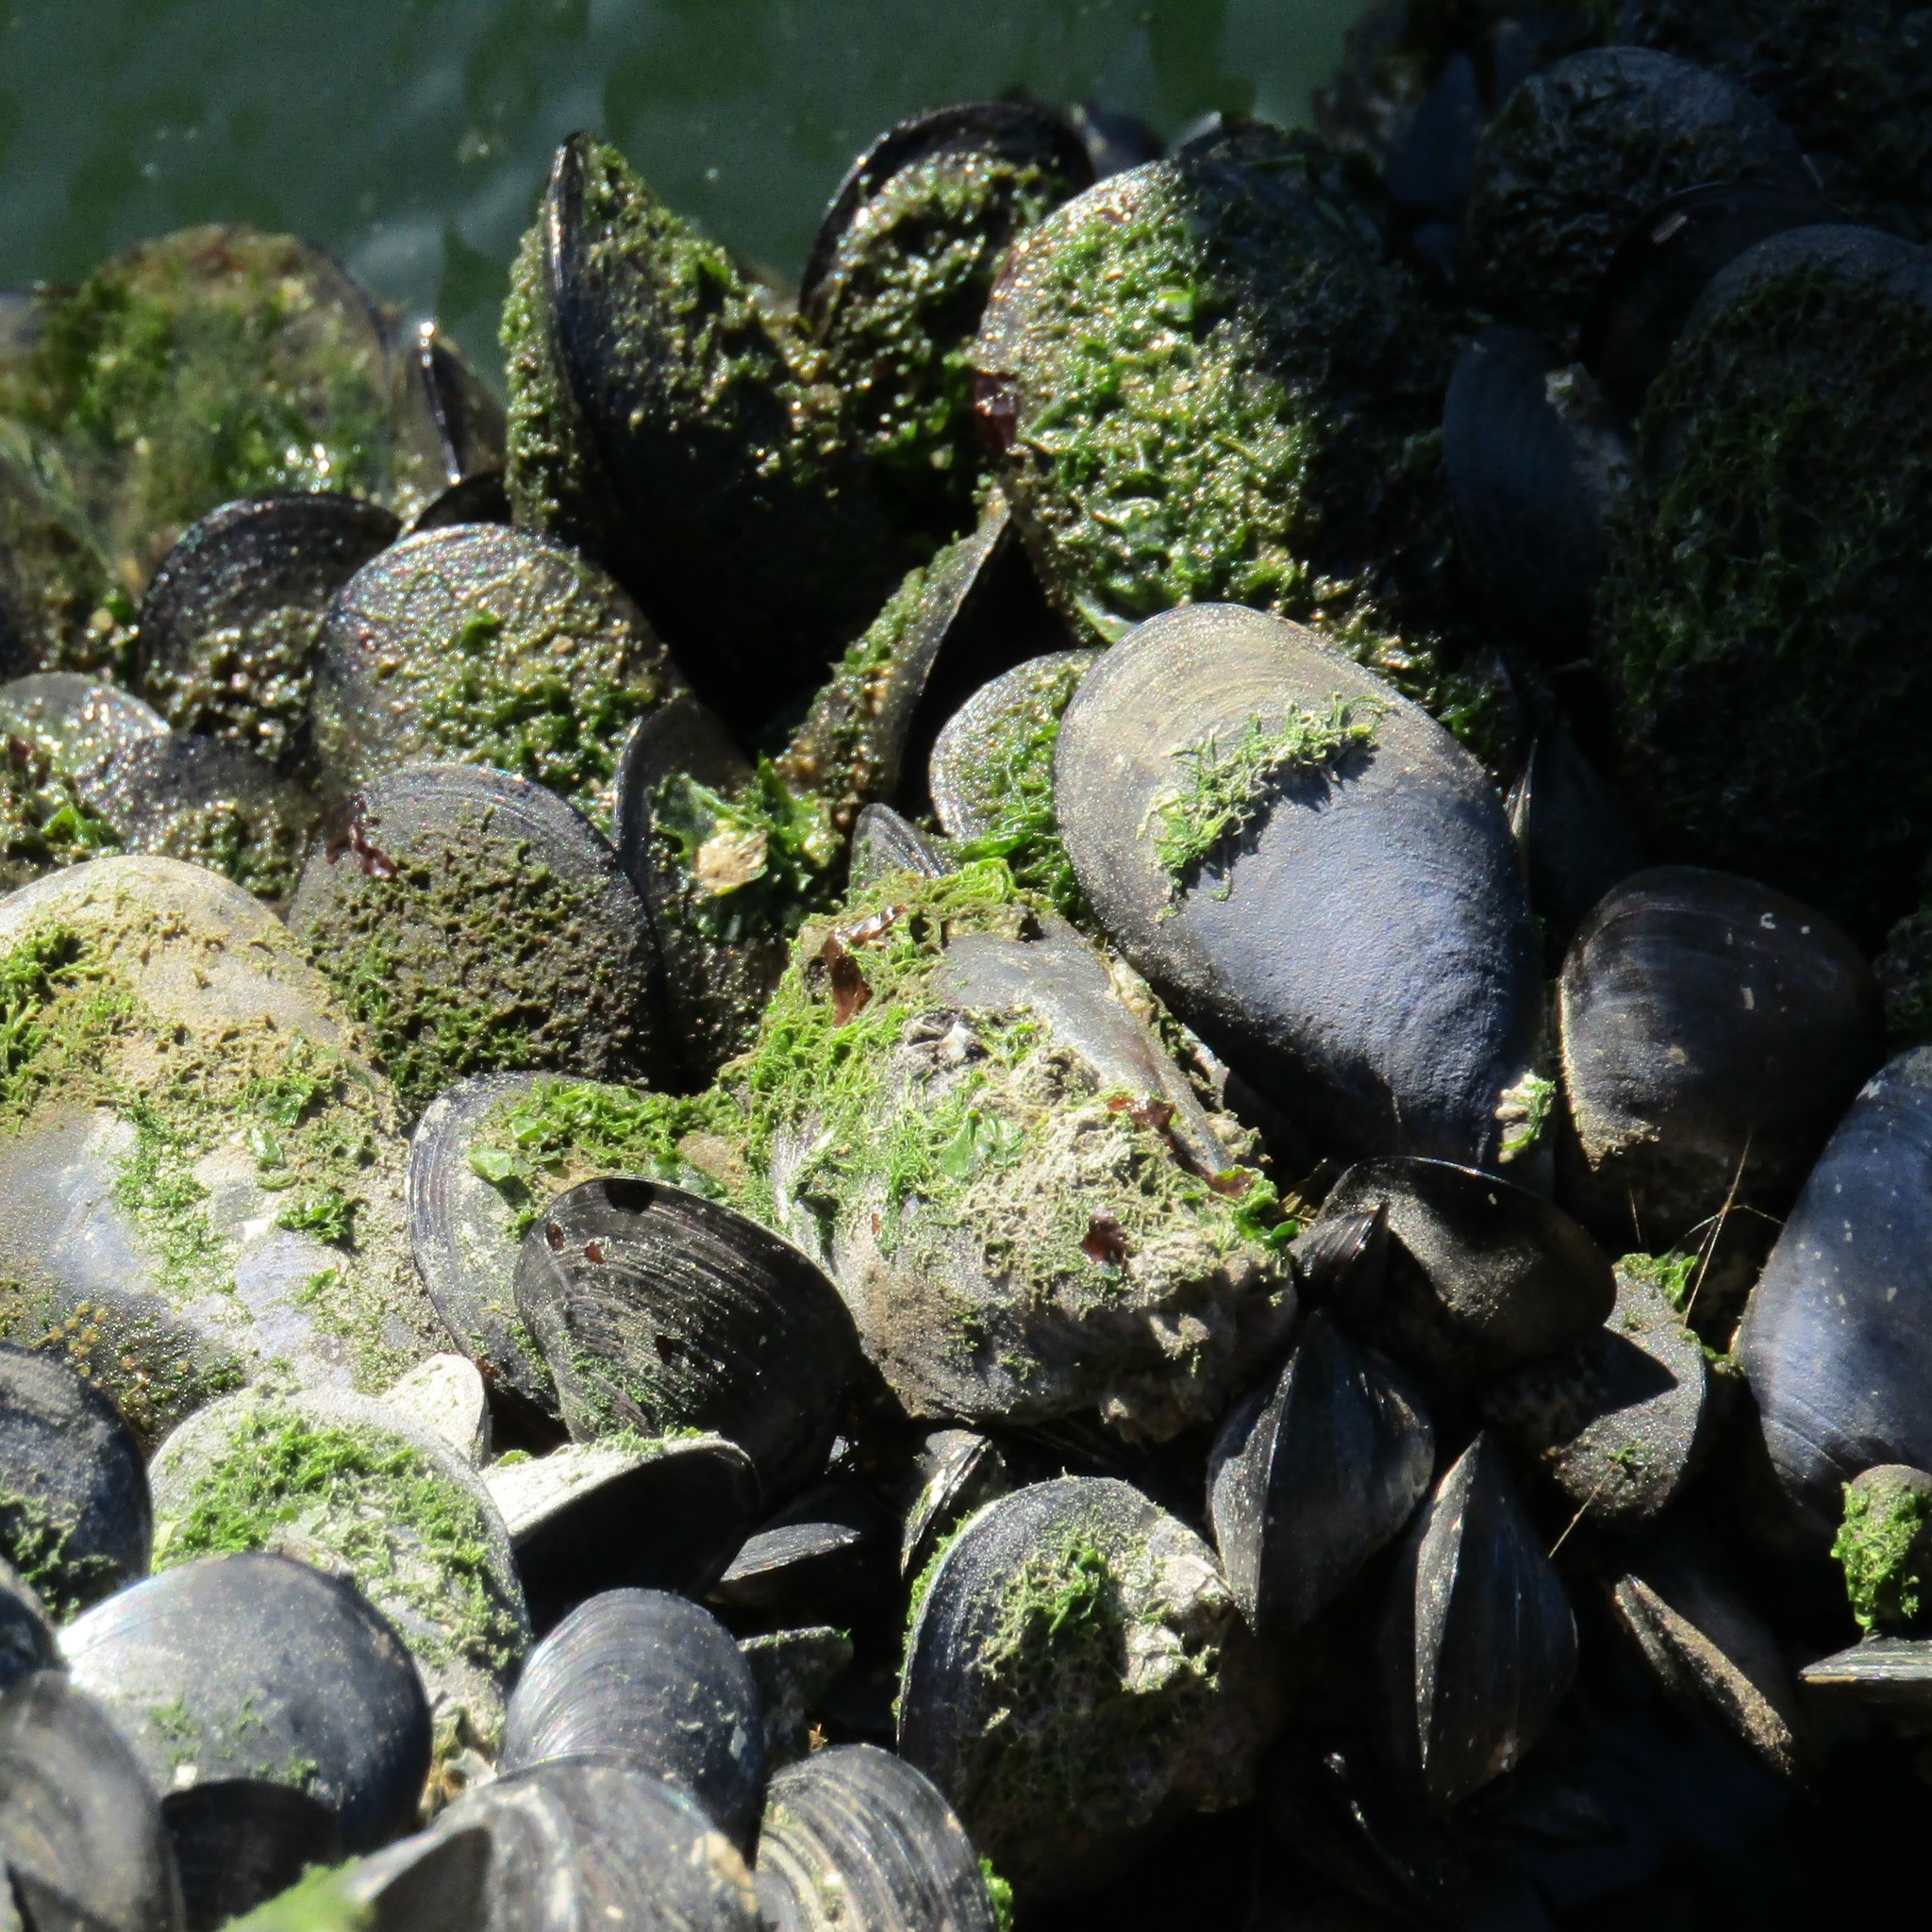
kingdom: Animalia
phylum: Mollusca
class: Bivalvia
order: Mytilida
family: Mytilidae
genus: Mytilus
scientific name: Mytilus planulatus
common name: Australian mussel
